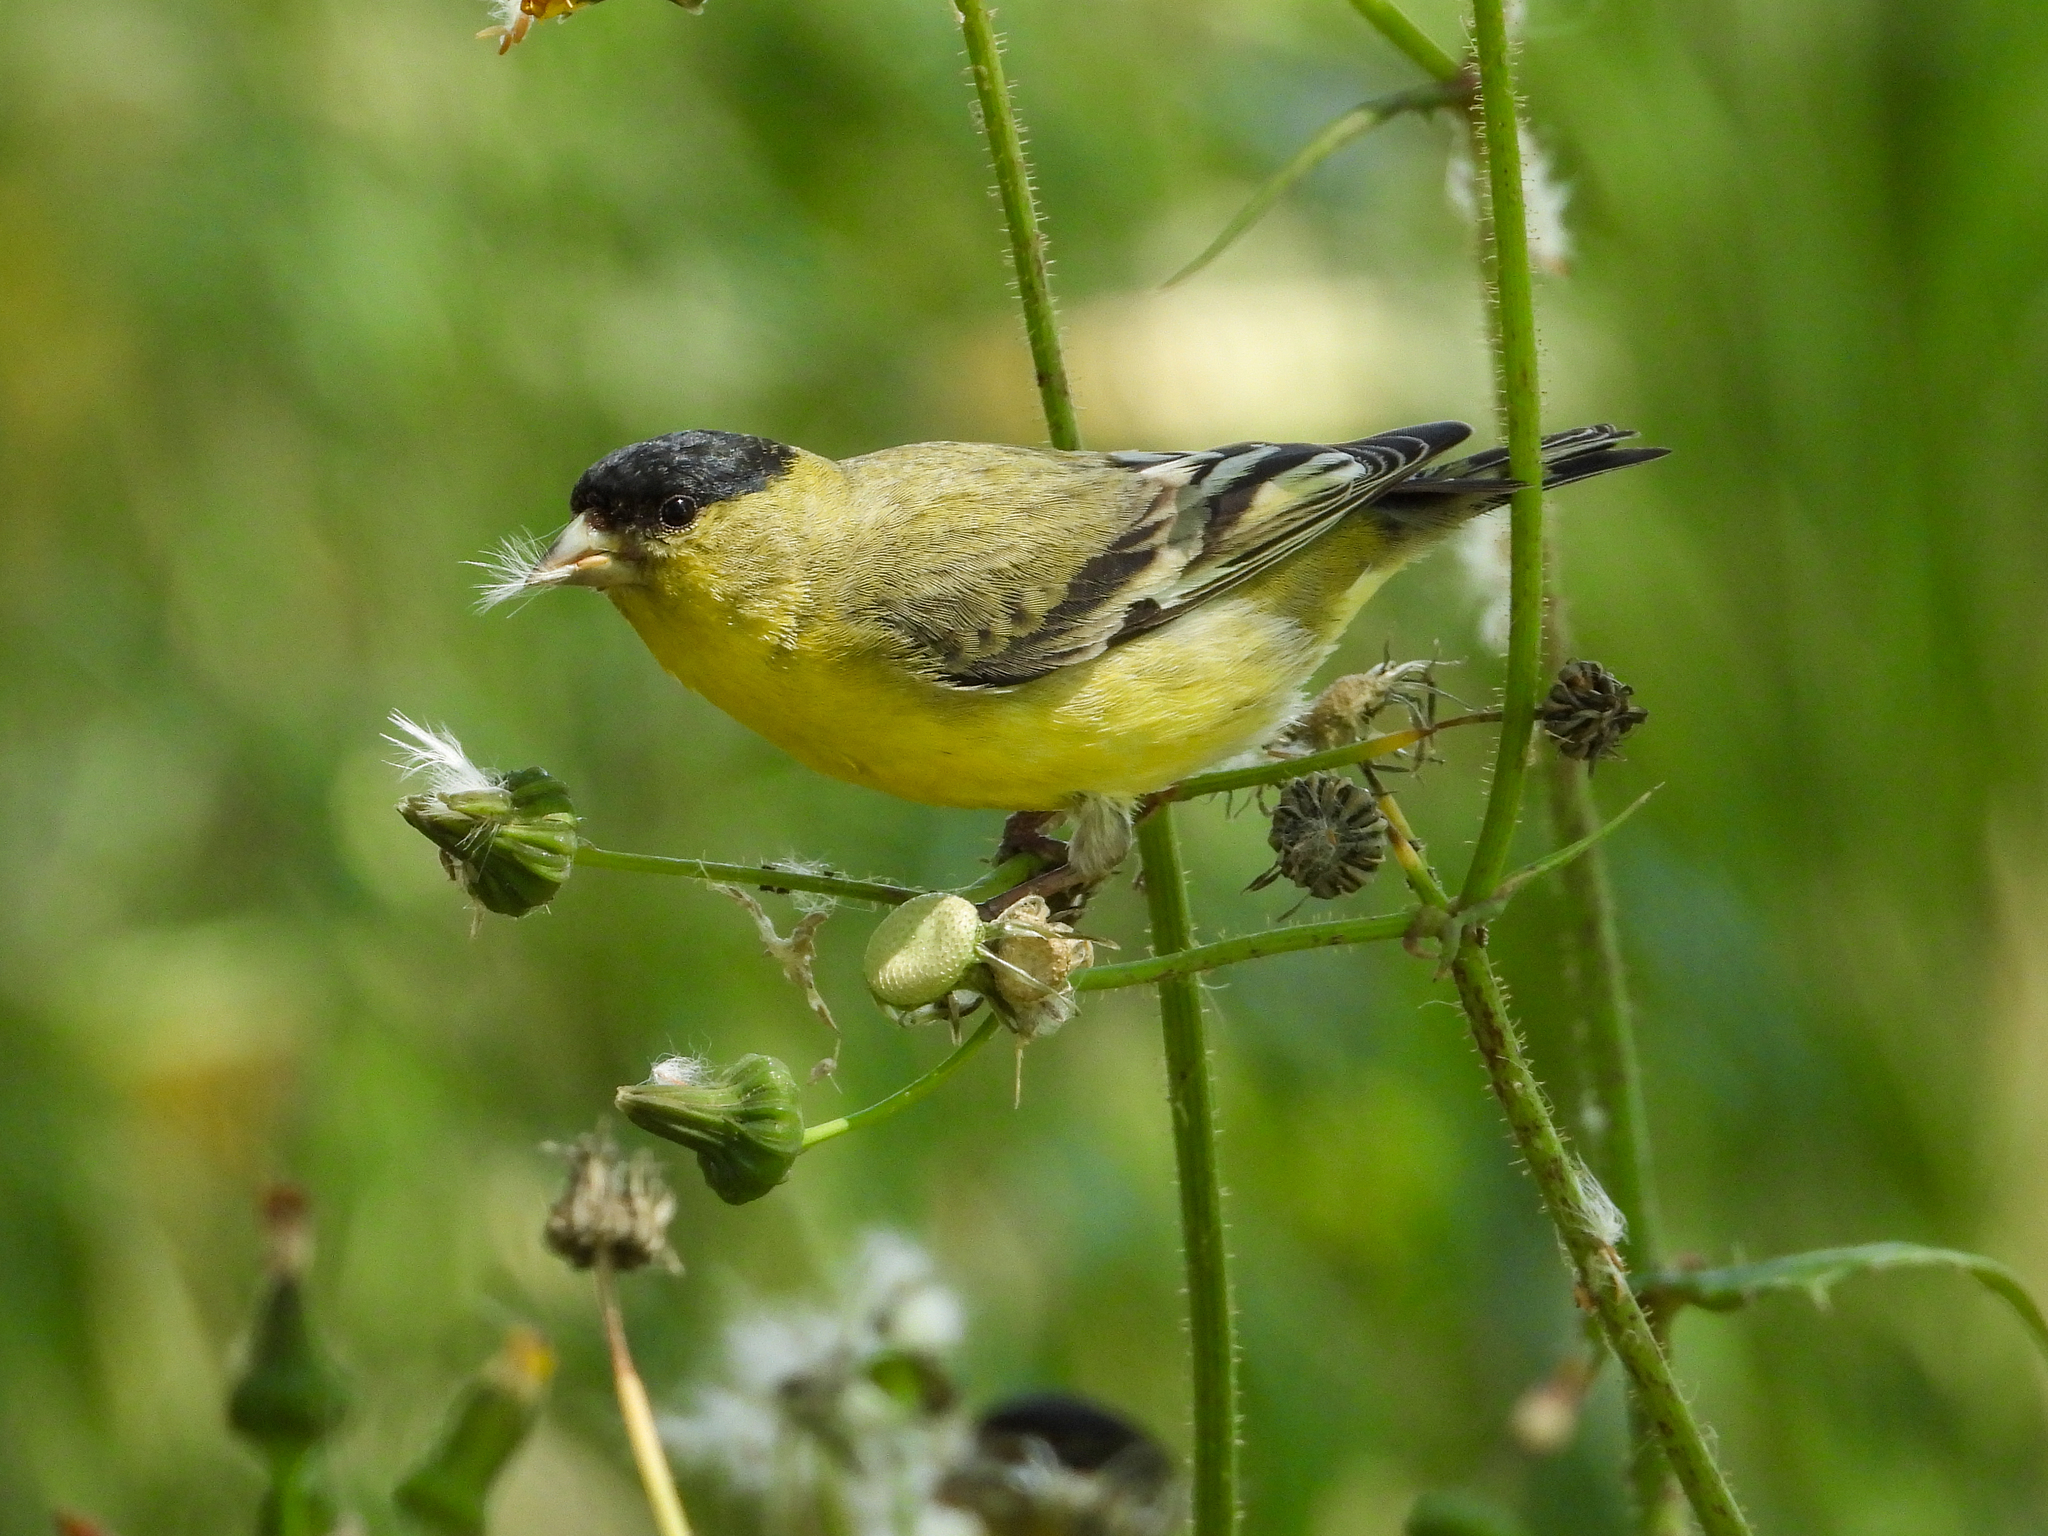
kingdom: Animalia
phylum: Chordata
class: Aves
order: Passeriformes
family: Fringillidae
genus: Spinus
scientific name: Spinus psaltria
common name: Lesser goldfinch
